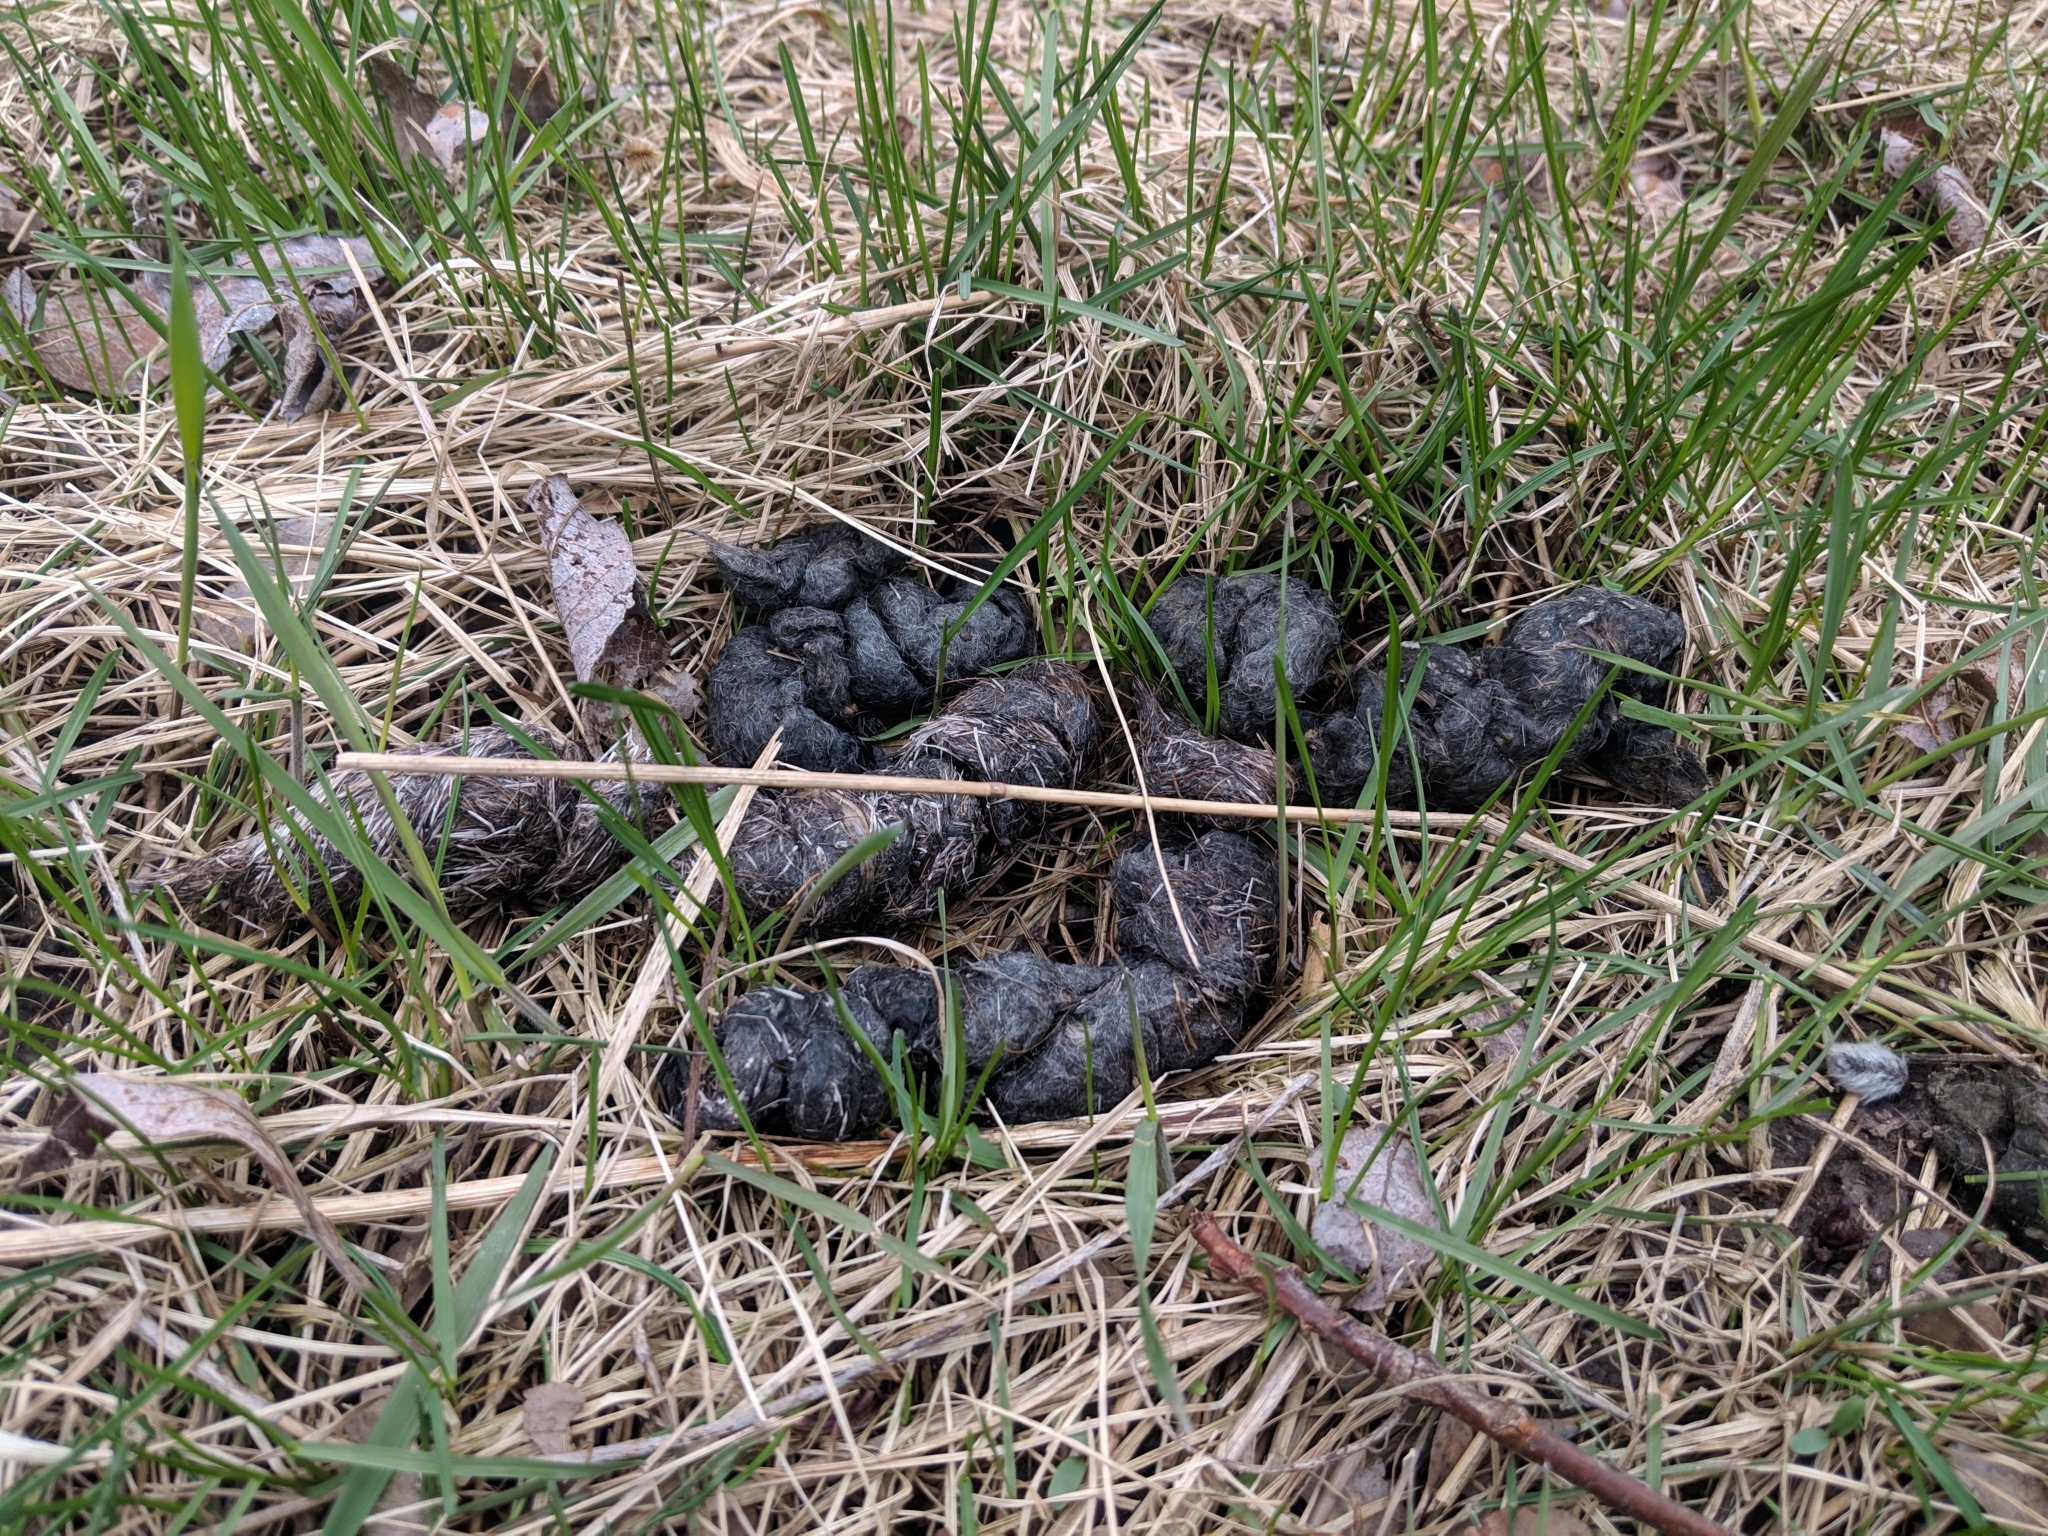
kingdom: Animalia
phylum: Chordata
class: Mammalia
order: Carnivora
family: Canidae
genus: Canis
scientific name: Canis latrans
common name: Coyote
